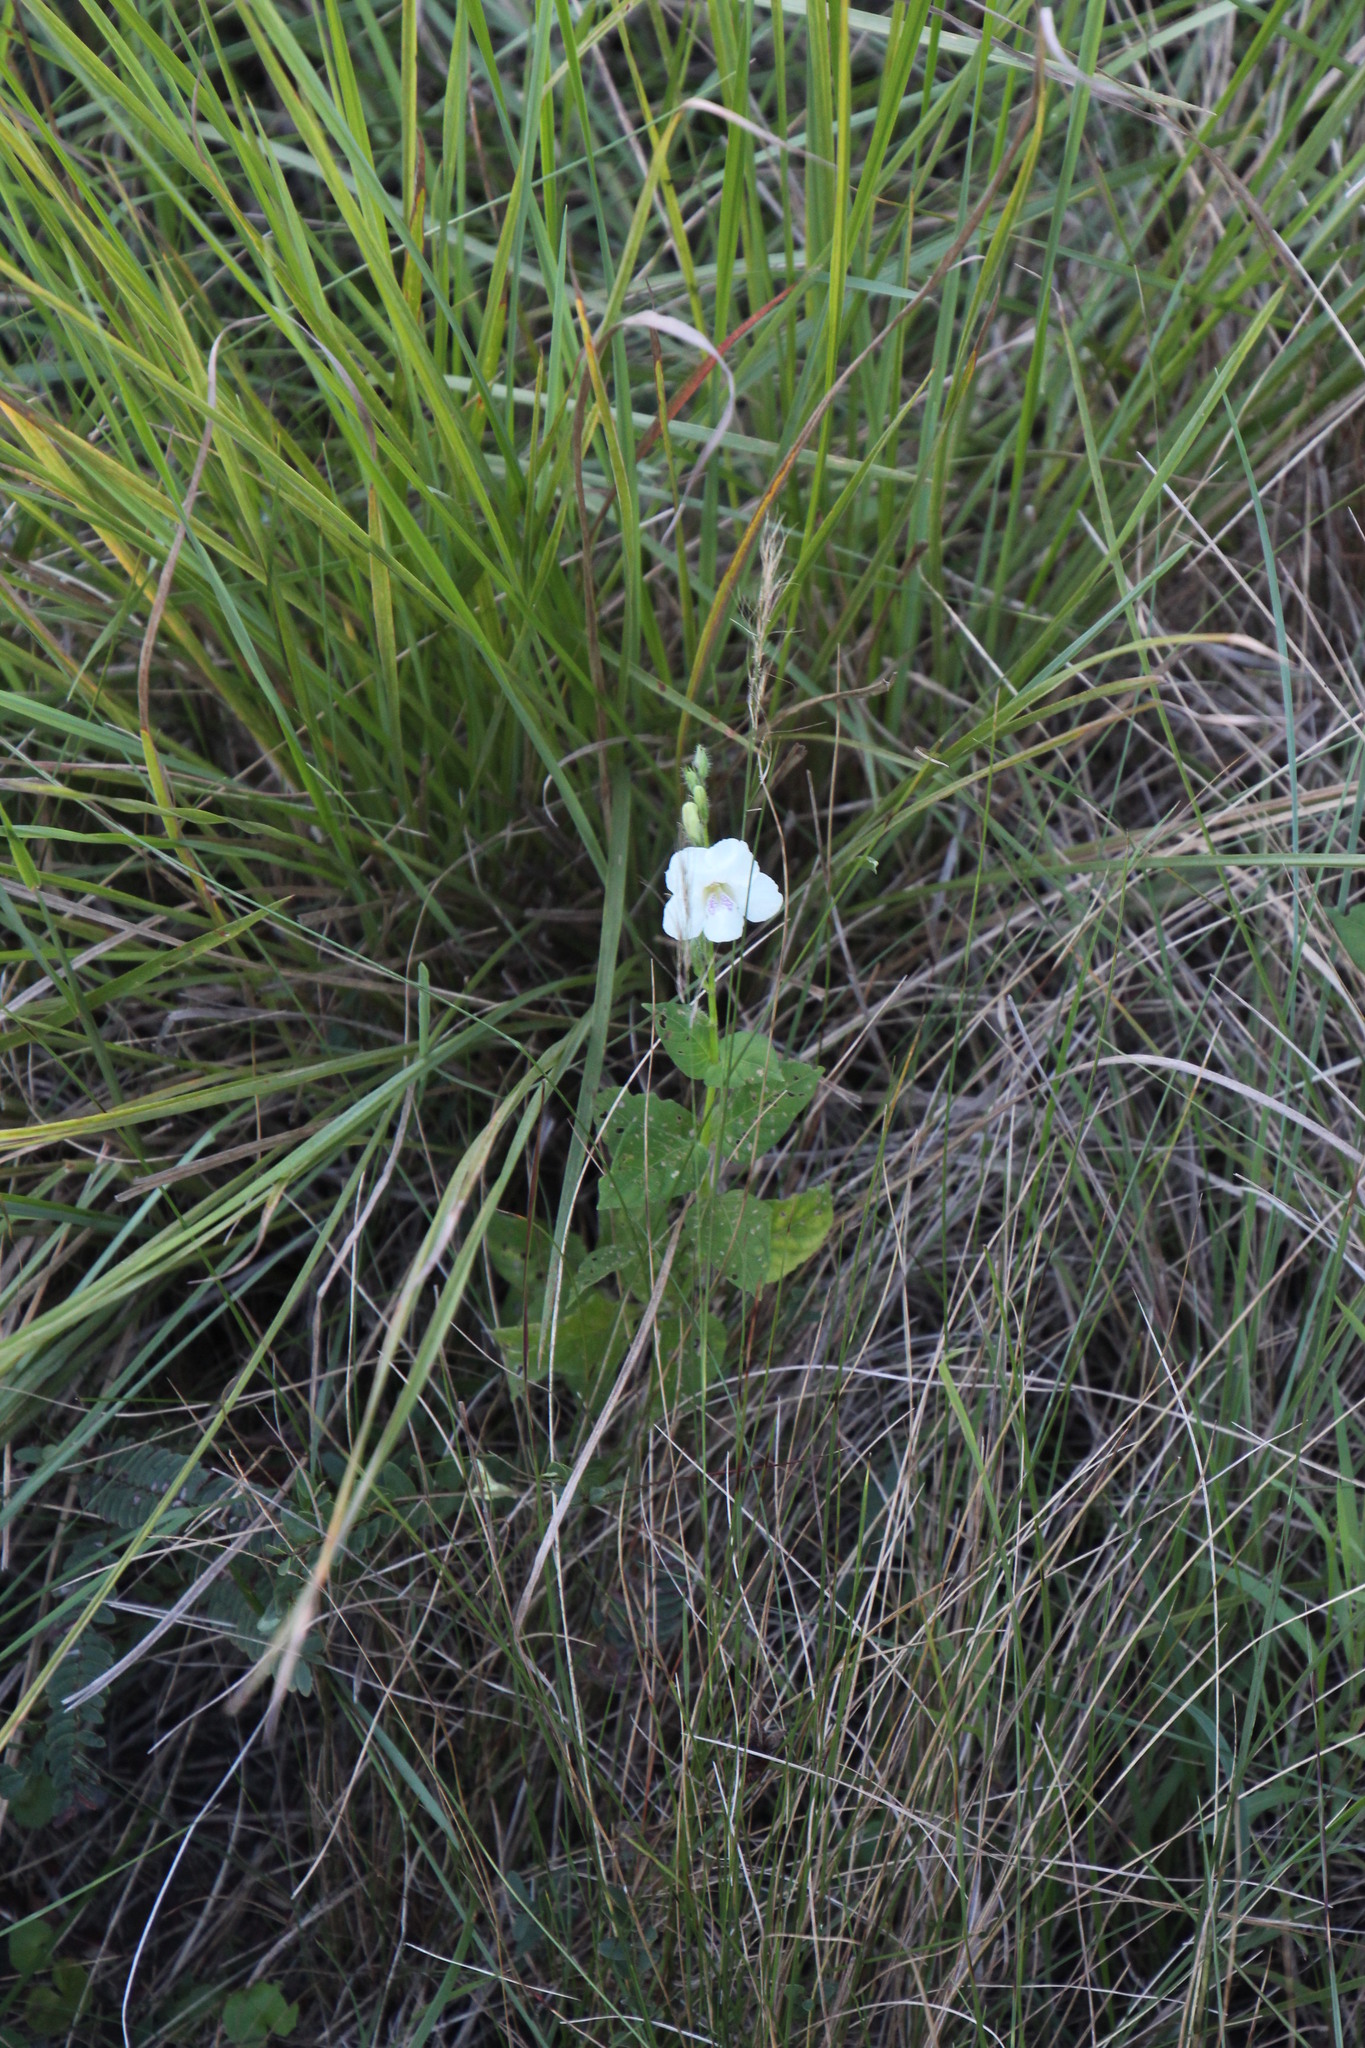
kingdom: Plantae
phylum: Tracheophyta
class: Magnoliopsida
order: Lamiales
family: Acanthaceae
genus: Asystasia
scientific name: Asystasia intrusa
